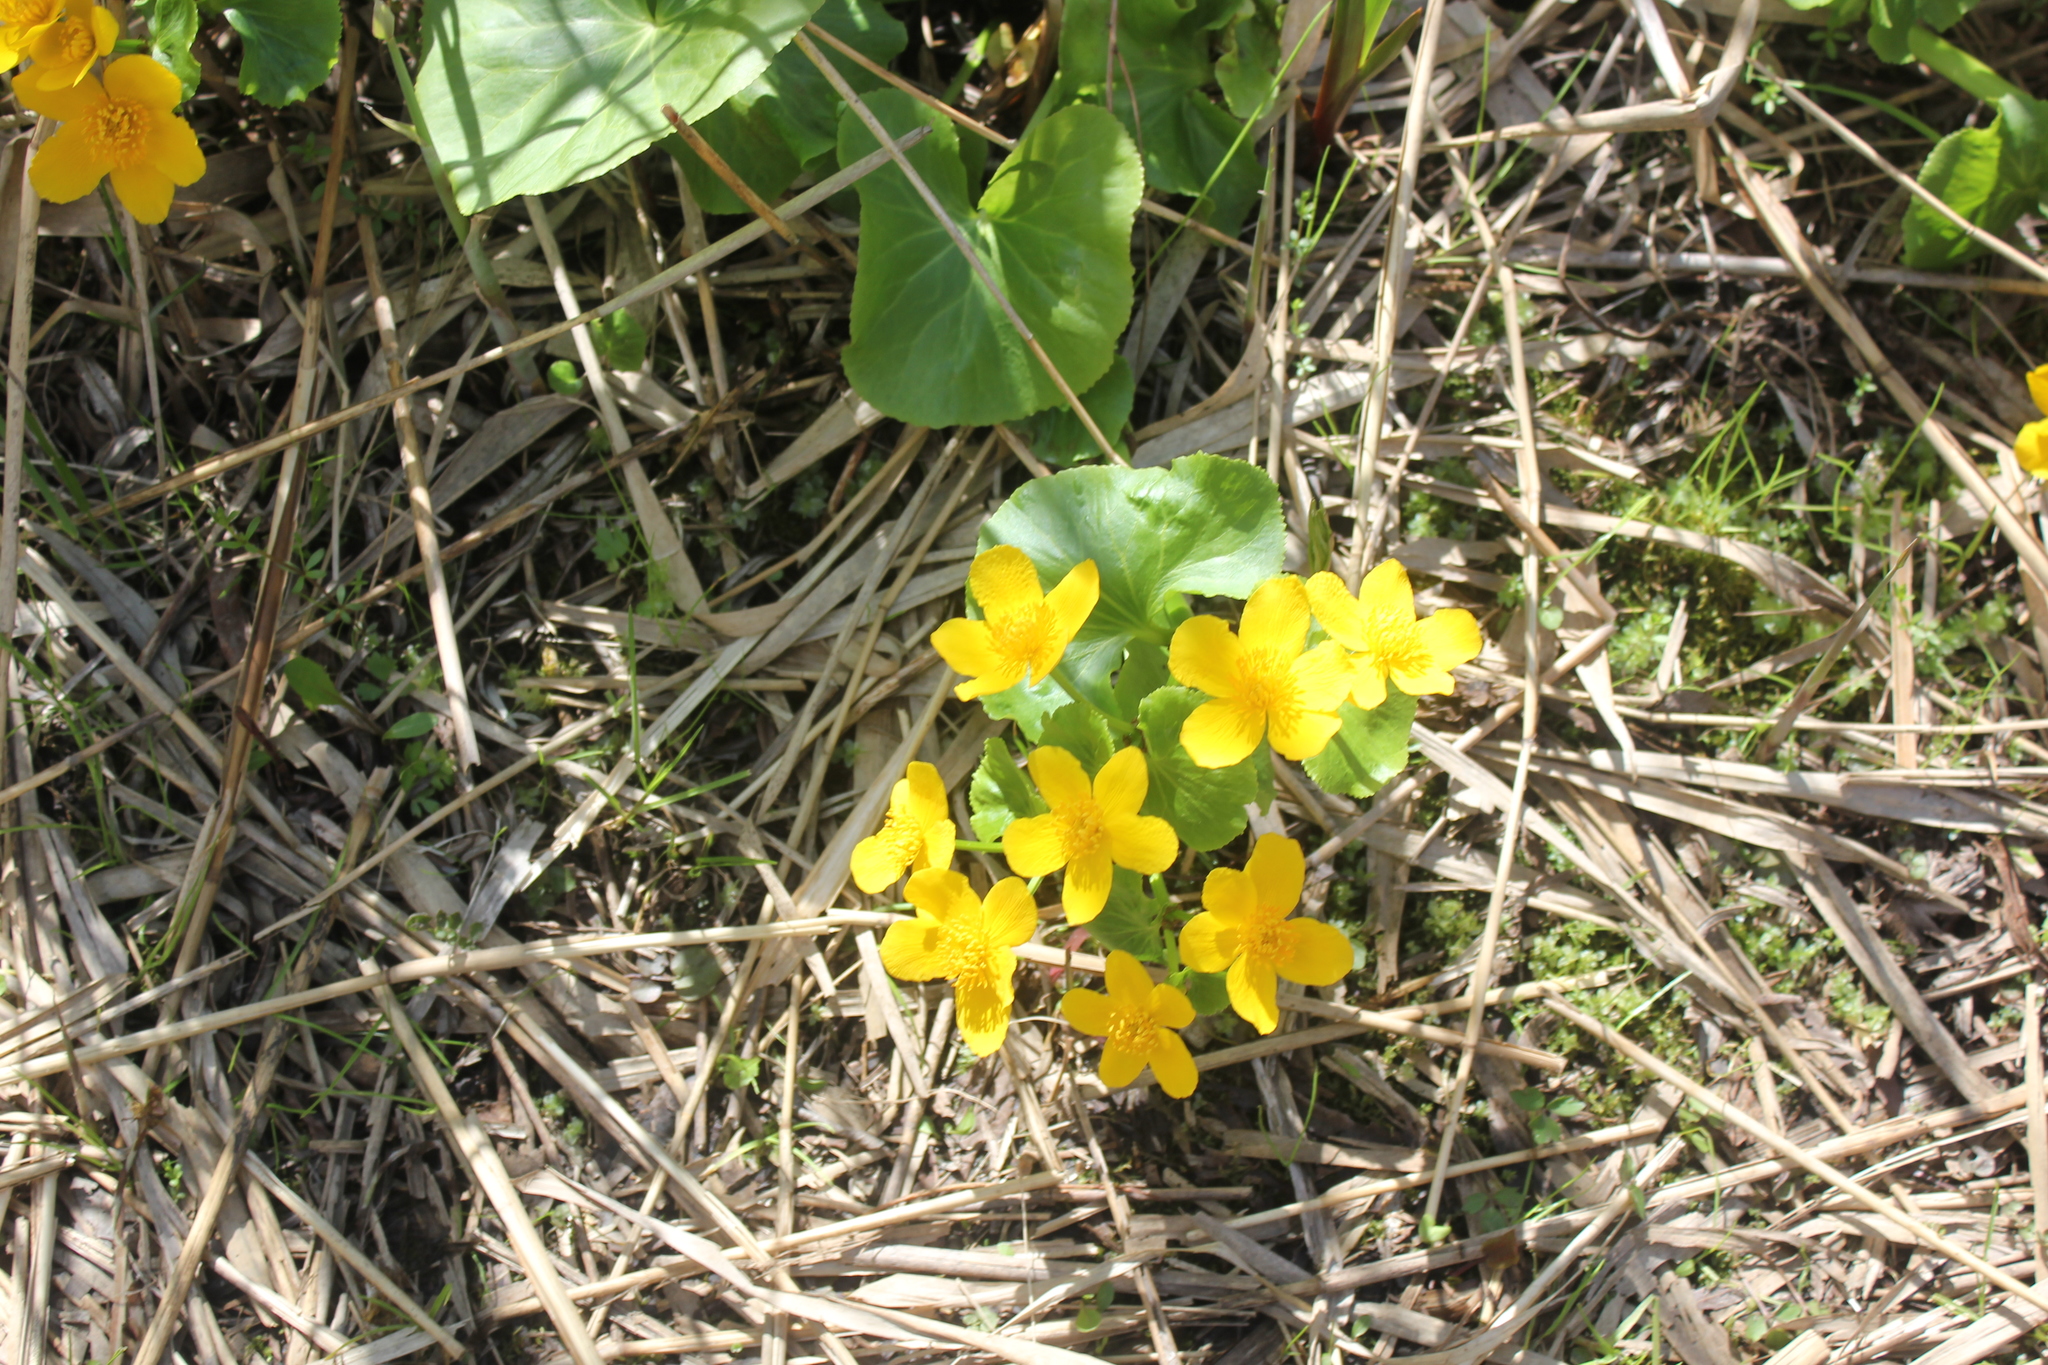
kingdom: Plantae
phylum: Tracheophyta
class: Magnoliopsida
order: Ranunculales
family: Ranunculaceae
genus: Caltha
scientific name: Caltha palustris
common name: Marsh marigold
